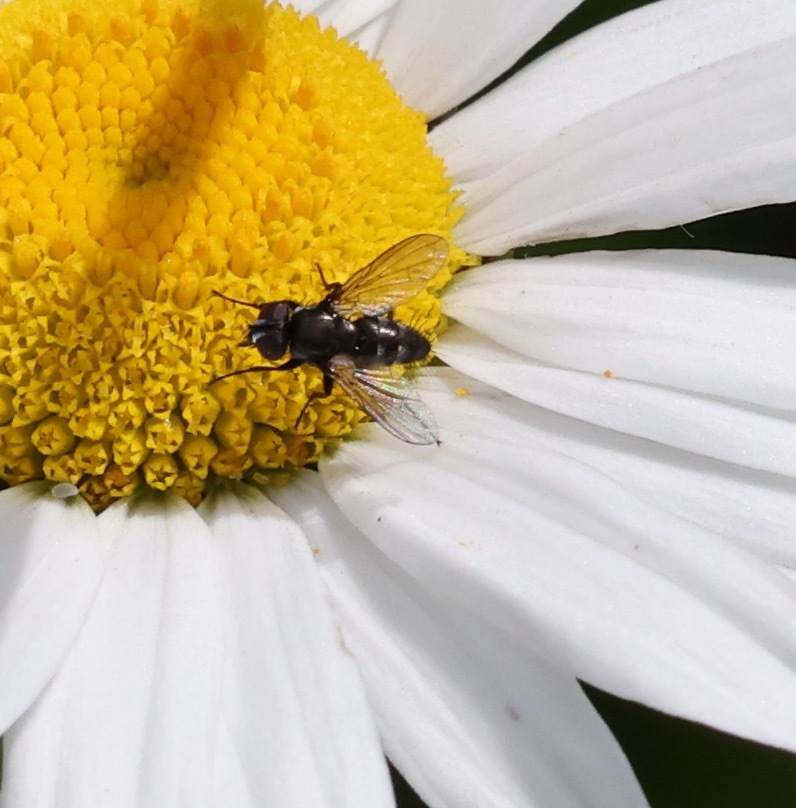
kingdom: Animalia
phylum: Arthropoda
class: Insecta
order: Diptera
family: Calliphoridae
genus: Rhinophora
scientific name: Rhinophora lepida
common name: Pouting woodlouse-fly
